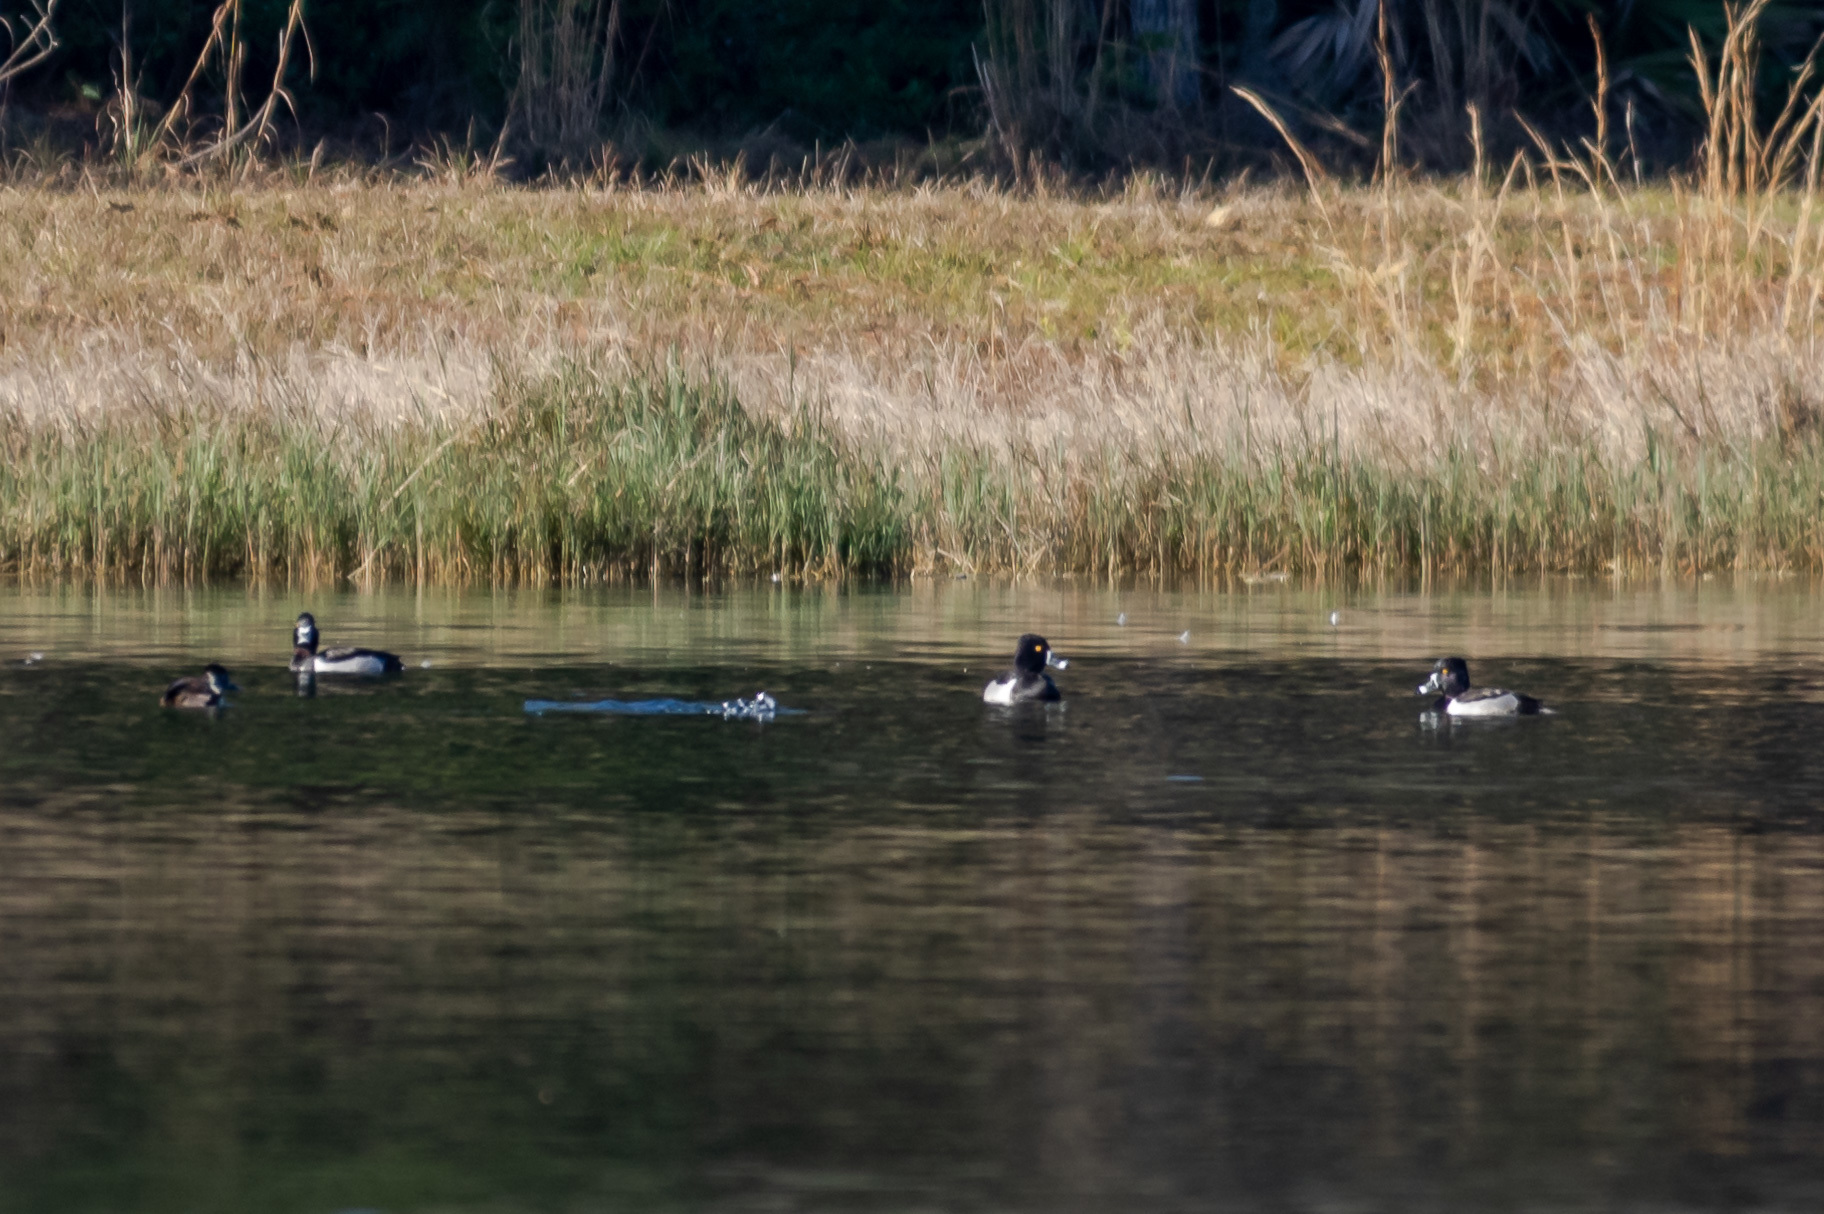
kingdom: Animalia
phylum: Chordata
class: Aves
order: Anseriformes
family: Anatidae
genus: Aythya
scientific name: Aythya collaris
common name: Ring-necked duck
